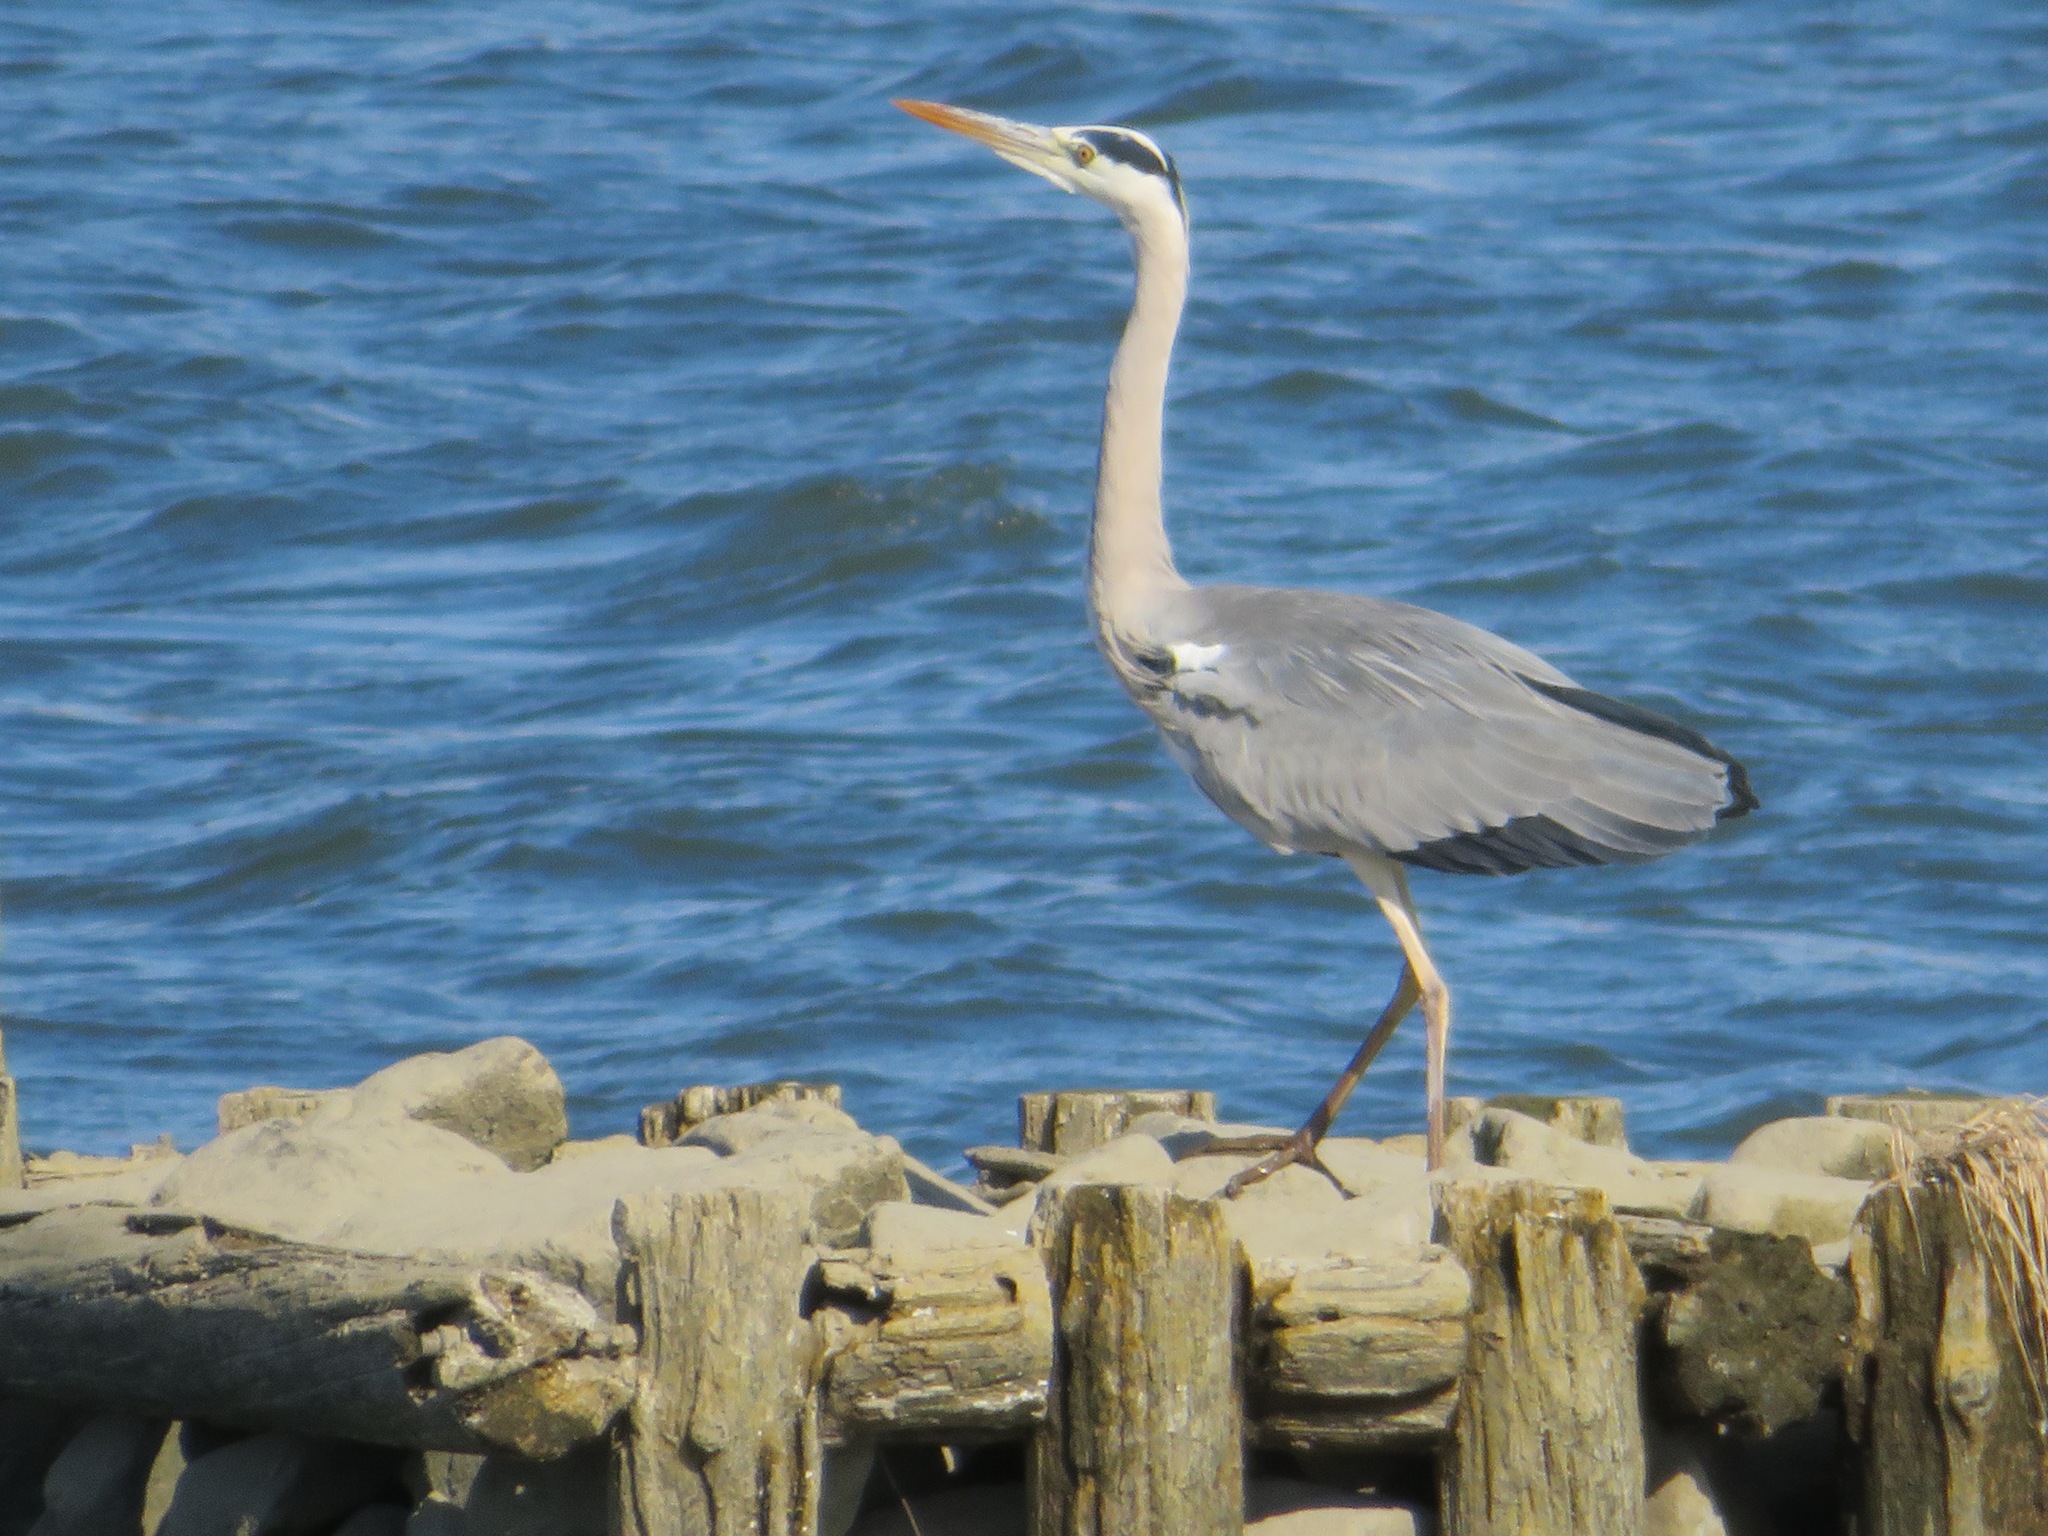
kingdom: Animalia
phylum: Chordata
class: Aves
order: Pelecaniformes
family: Ardeidae
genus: Ardea
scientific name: Ardea cinerea
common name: Grey heron
